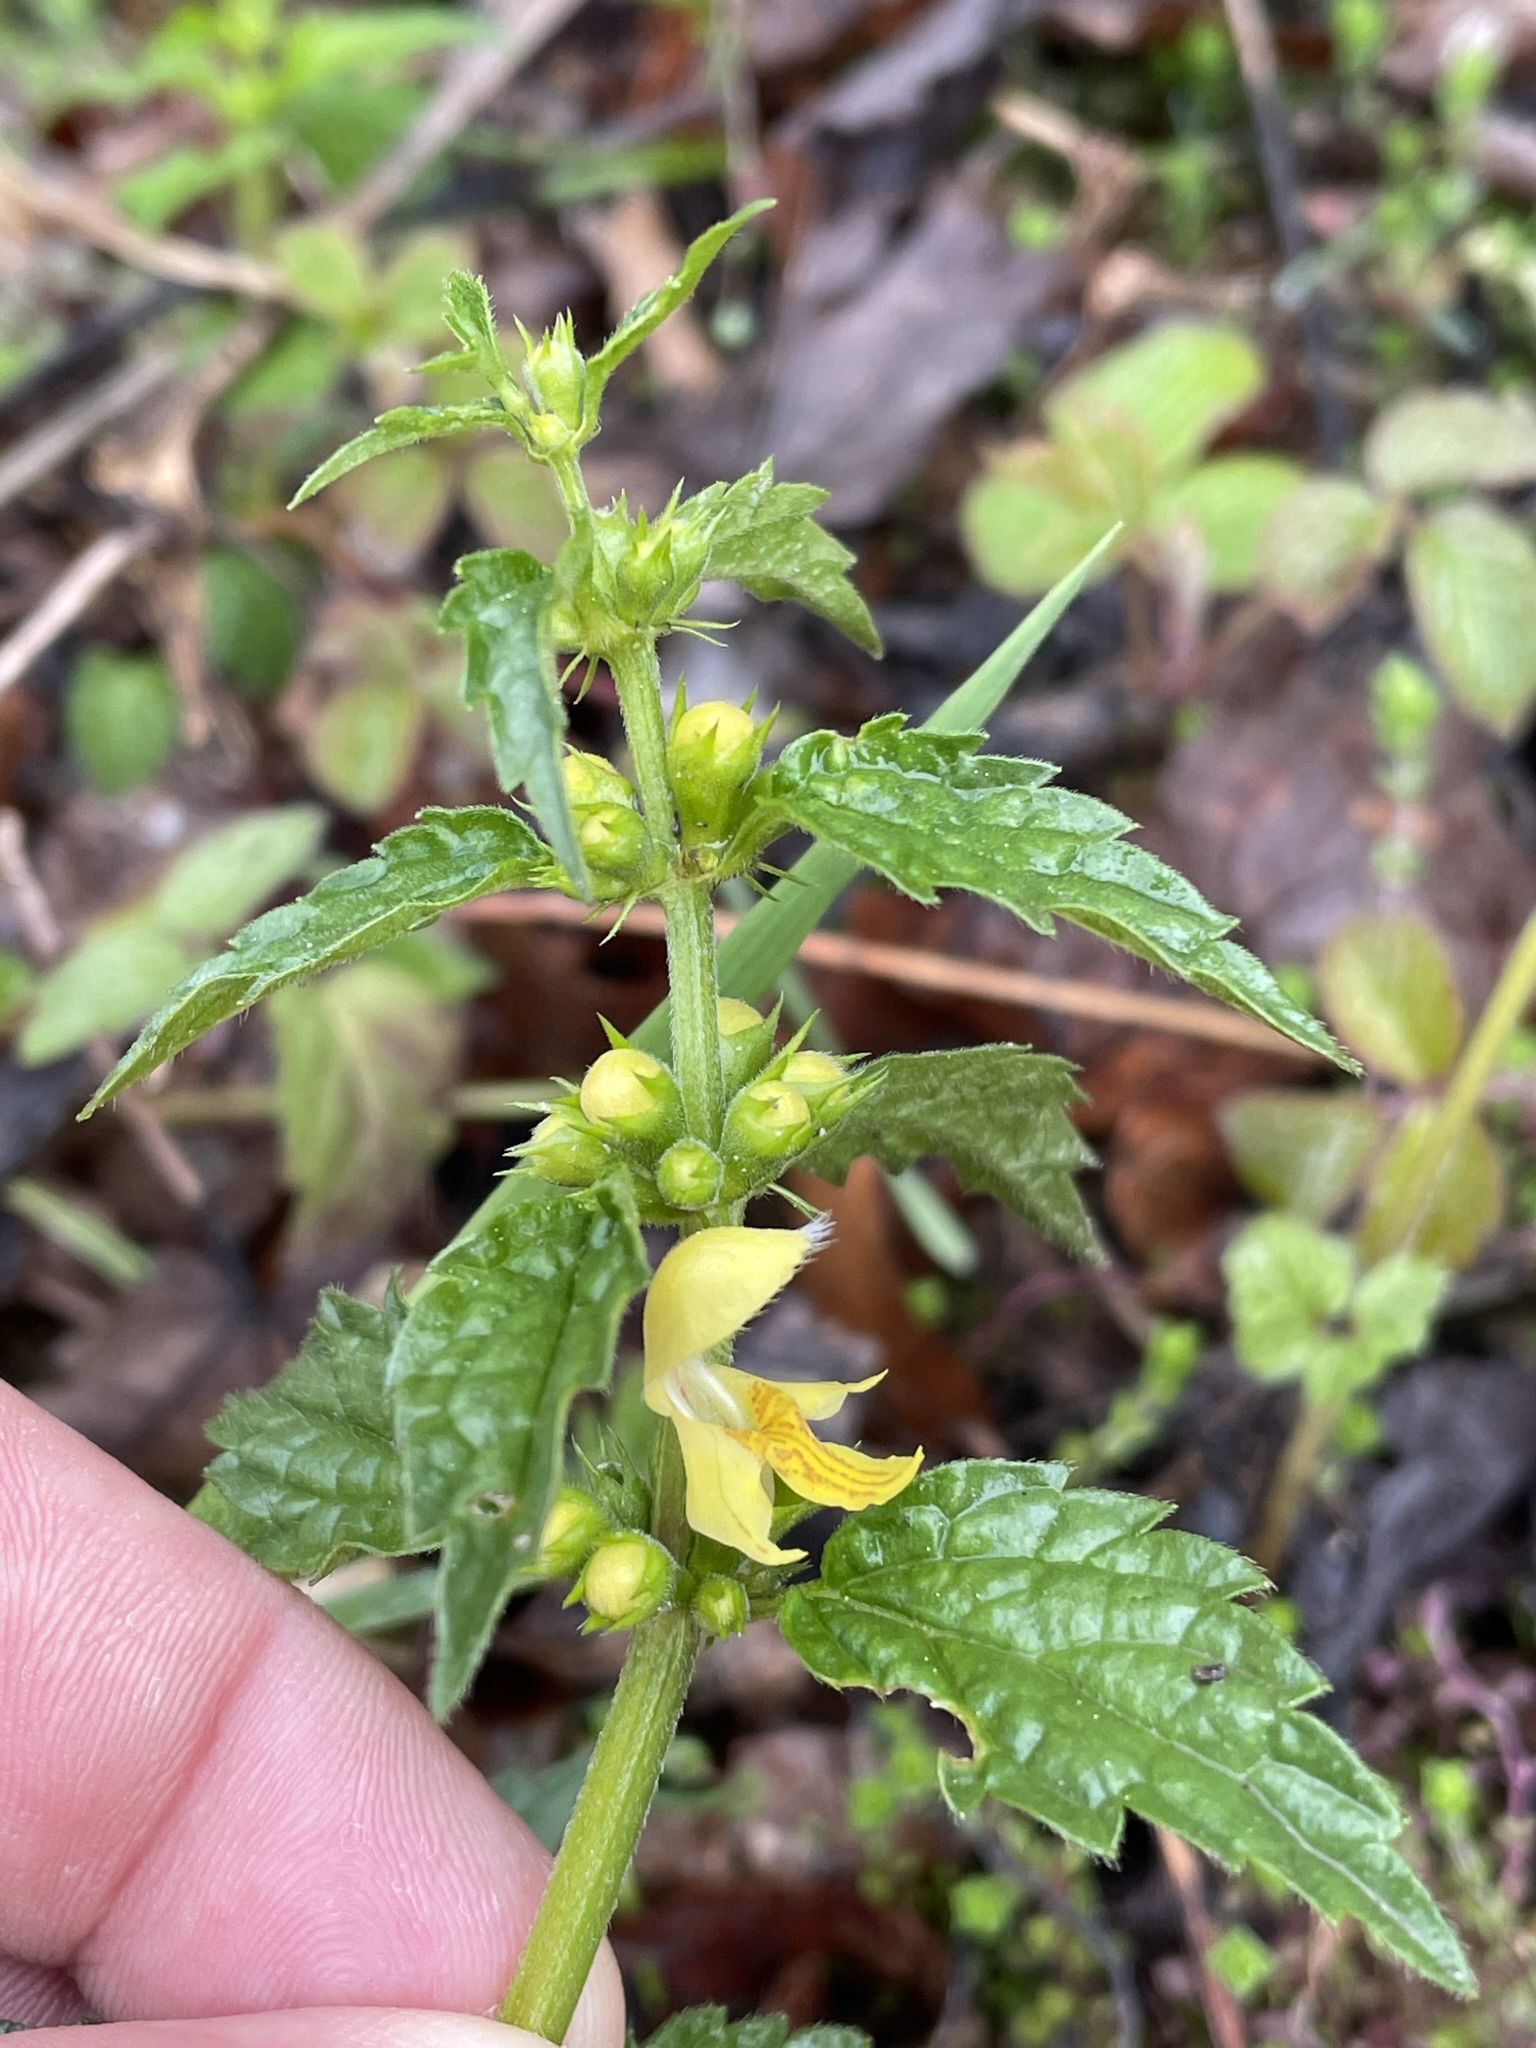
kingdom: Plantae
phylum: Tracheophyta
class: Magnoliopsida
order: Lamiales
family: Lamiaceae
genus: Lamium
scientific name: Lamium galeobdolon
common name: Yellow archangel
